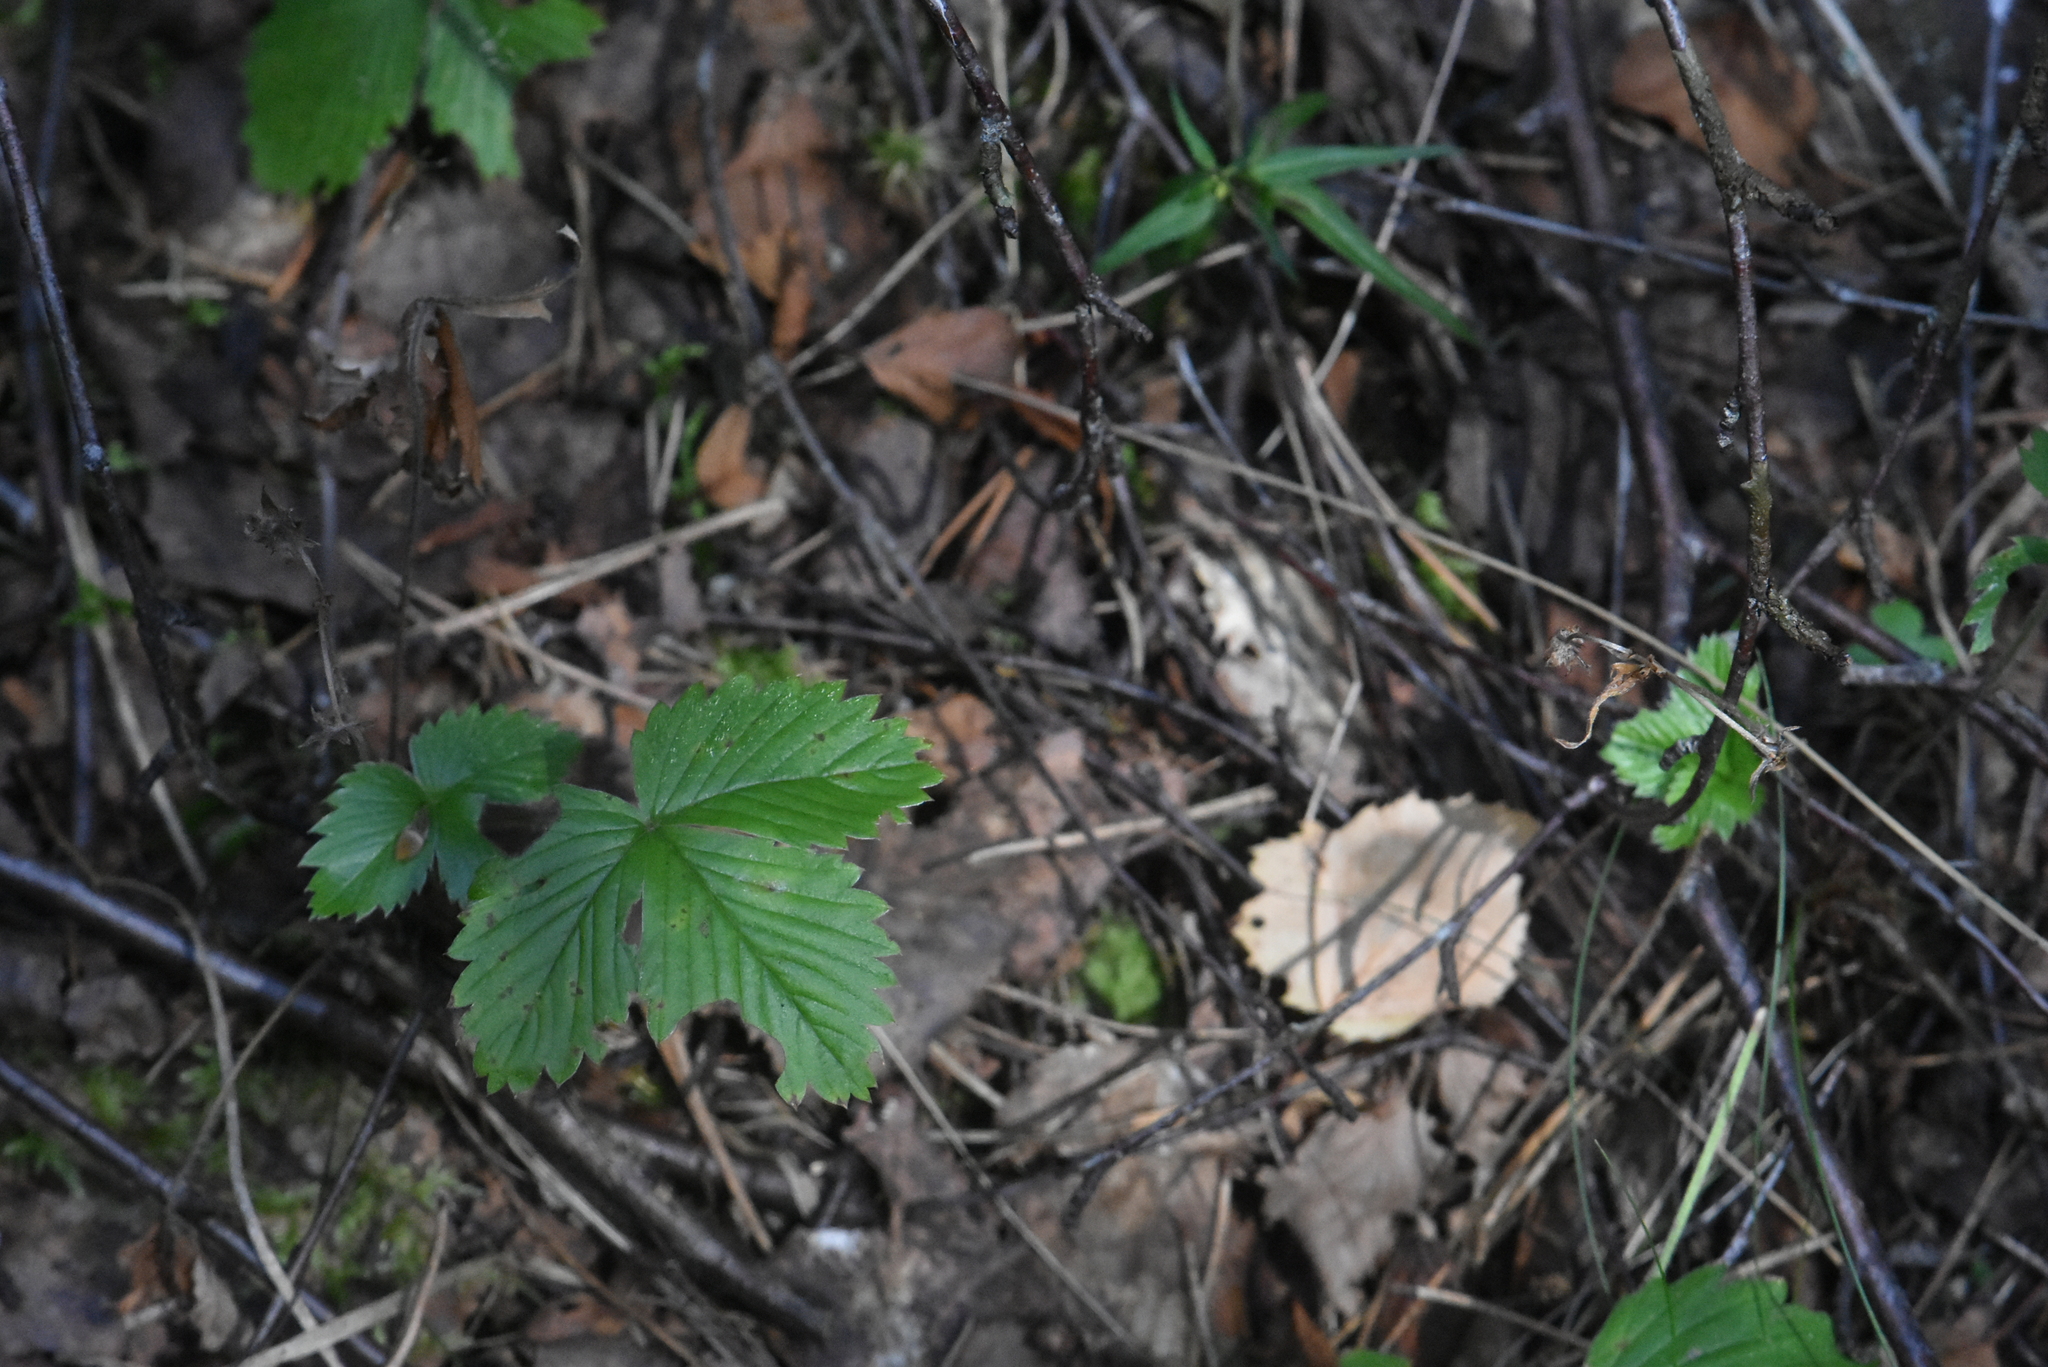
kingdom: Plantae
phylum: Tracheophyta
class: Magnoliopsida
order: Rosales
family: Rosaceae
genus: Fragaria
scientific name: Fragaria vesca
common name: Wild strawberry
